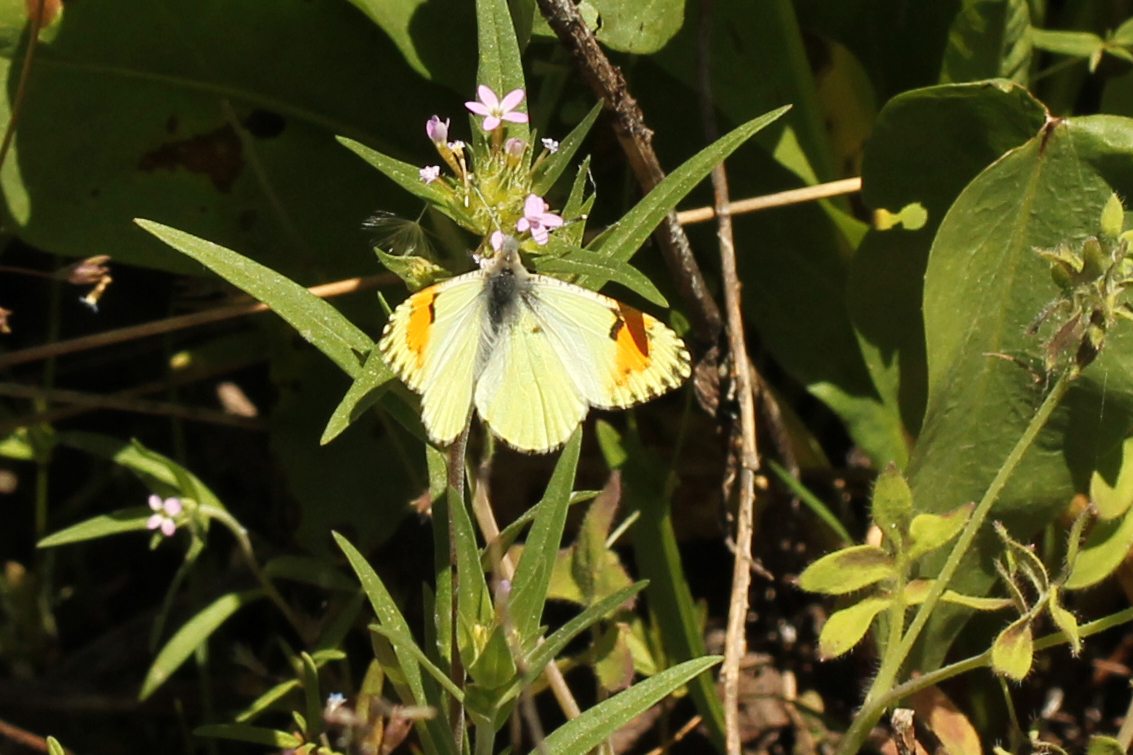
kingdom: Animalia
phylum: Arthropoda
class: Insecta
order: Lepidoptera
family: Pieridae
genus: Anthocharis
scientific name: Anthocharis julia
